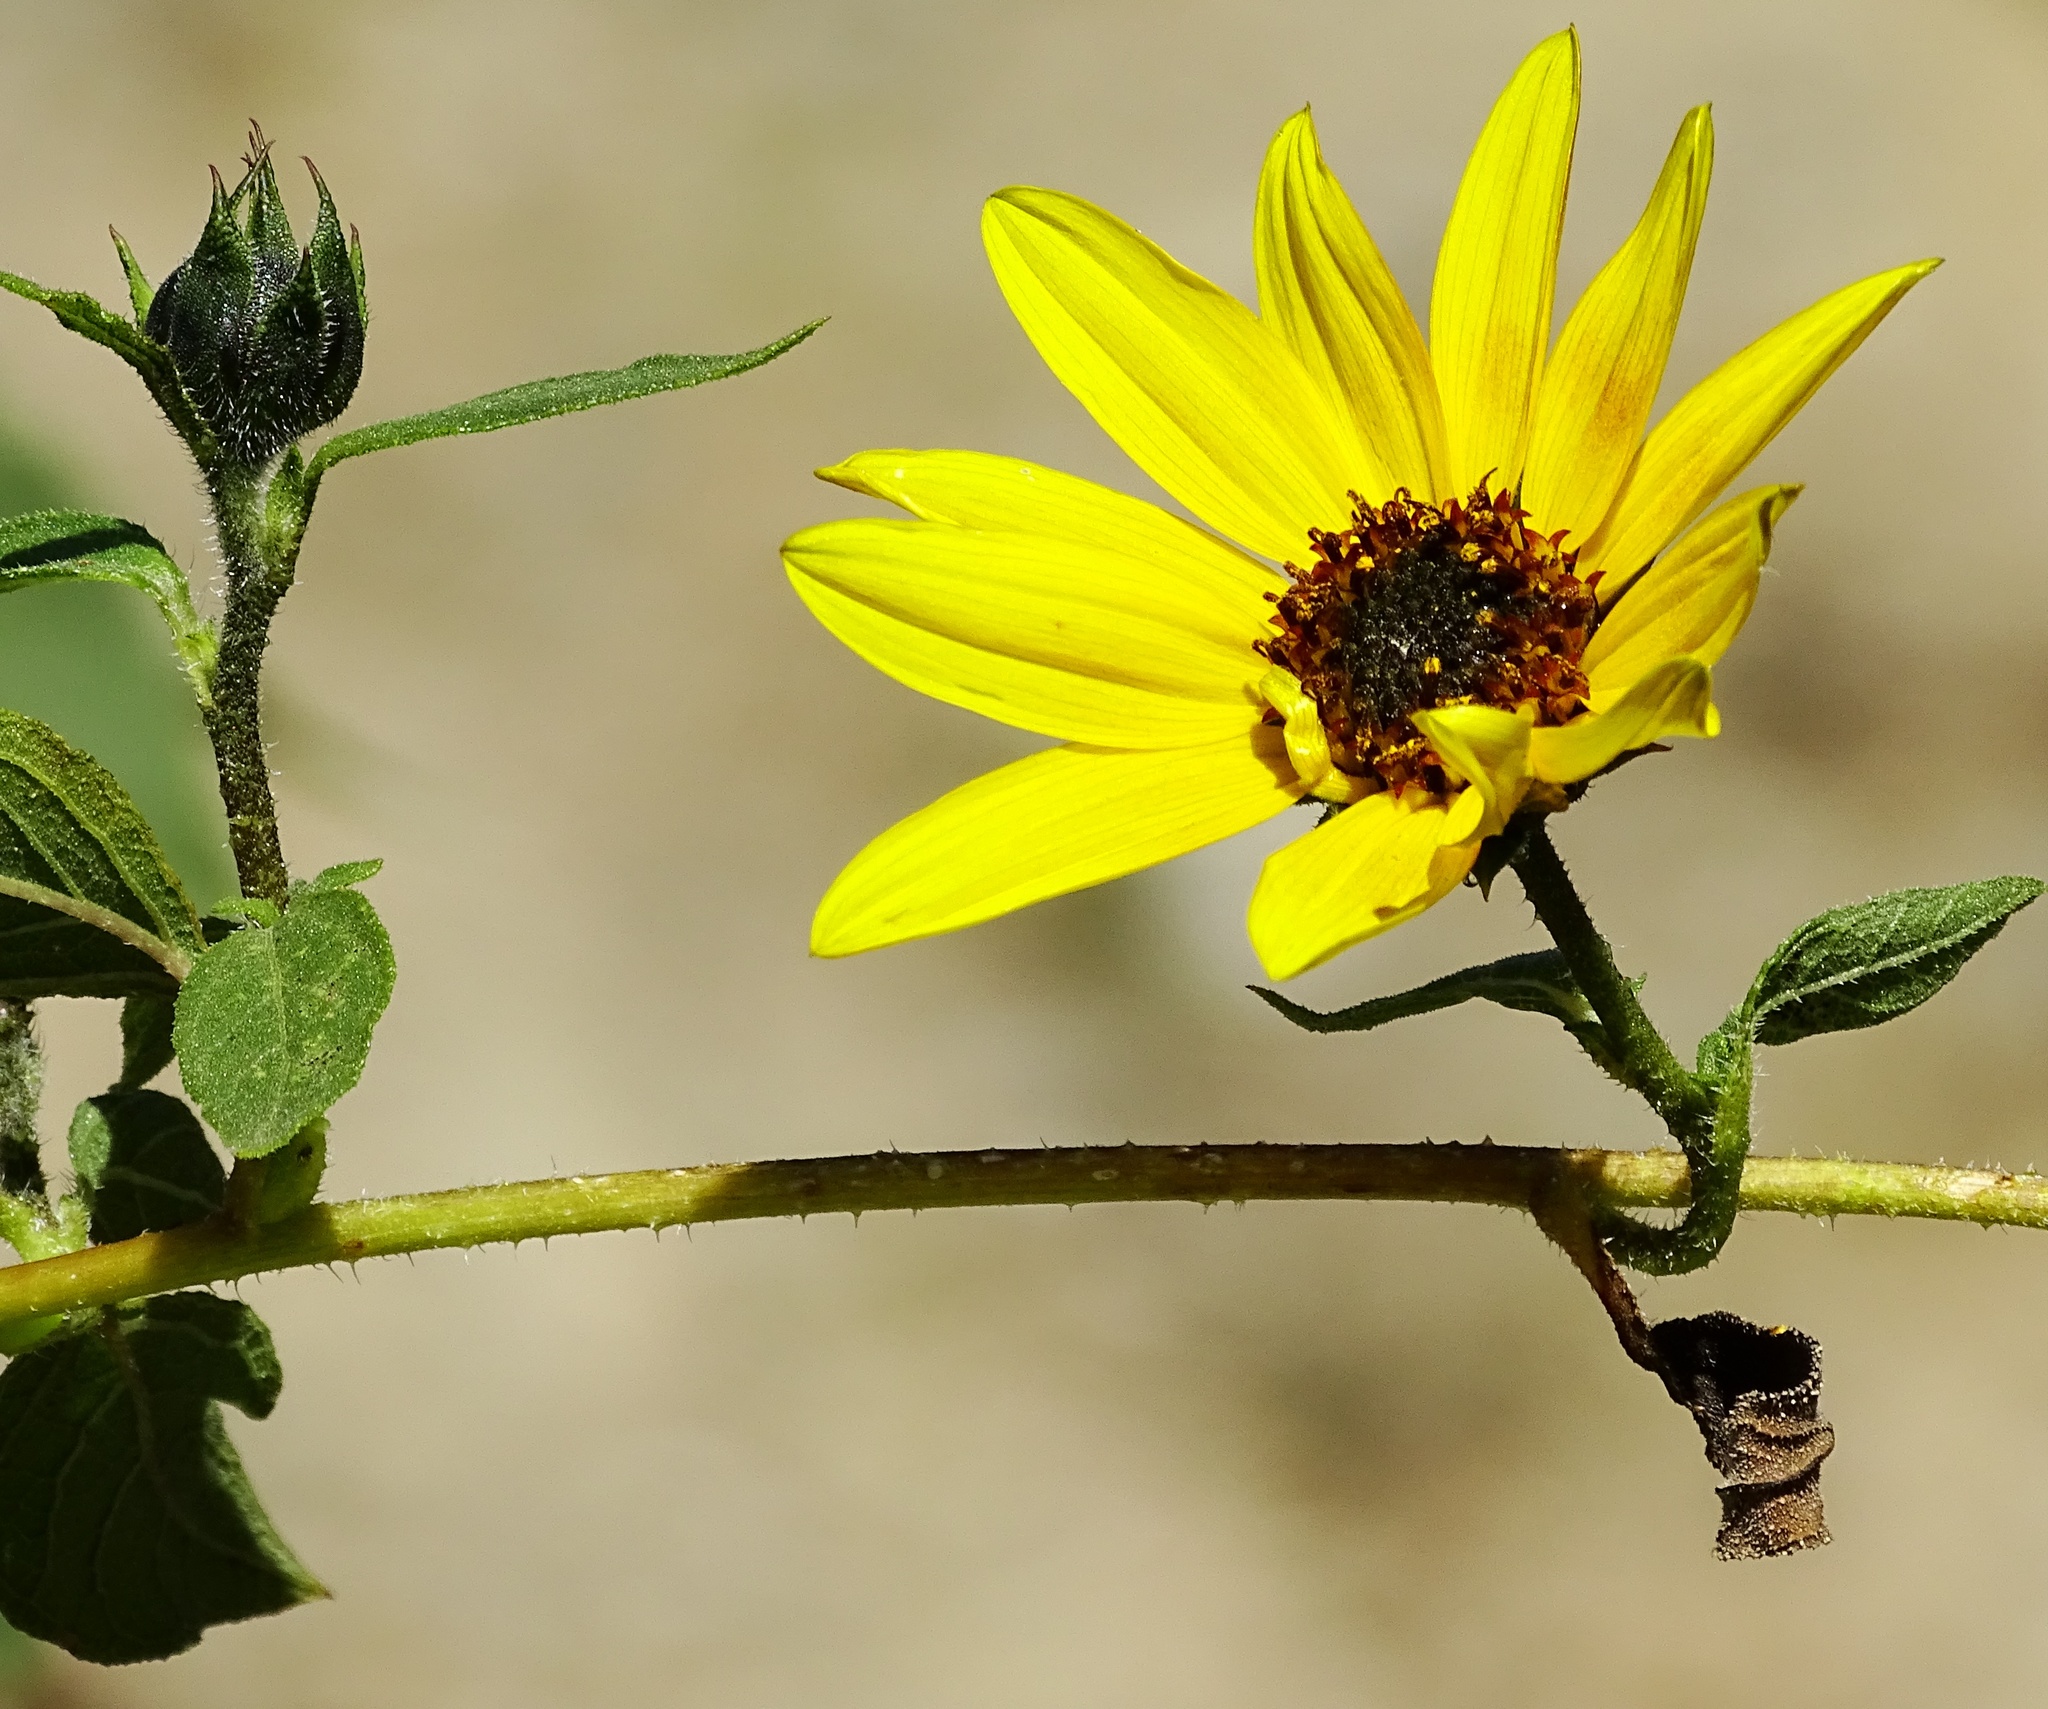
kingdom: Plantae
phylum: Tracheophyta
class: Magnoliopsida
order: Asterales
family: Asteraceae
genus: Helianthus
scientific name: Helianthus annuus
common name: Sunflower
